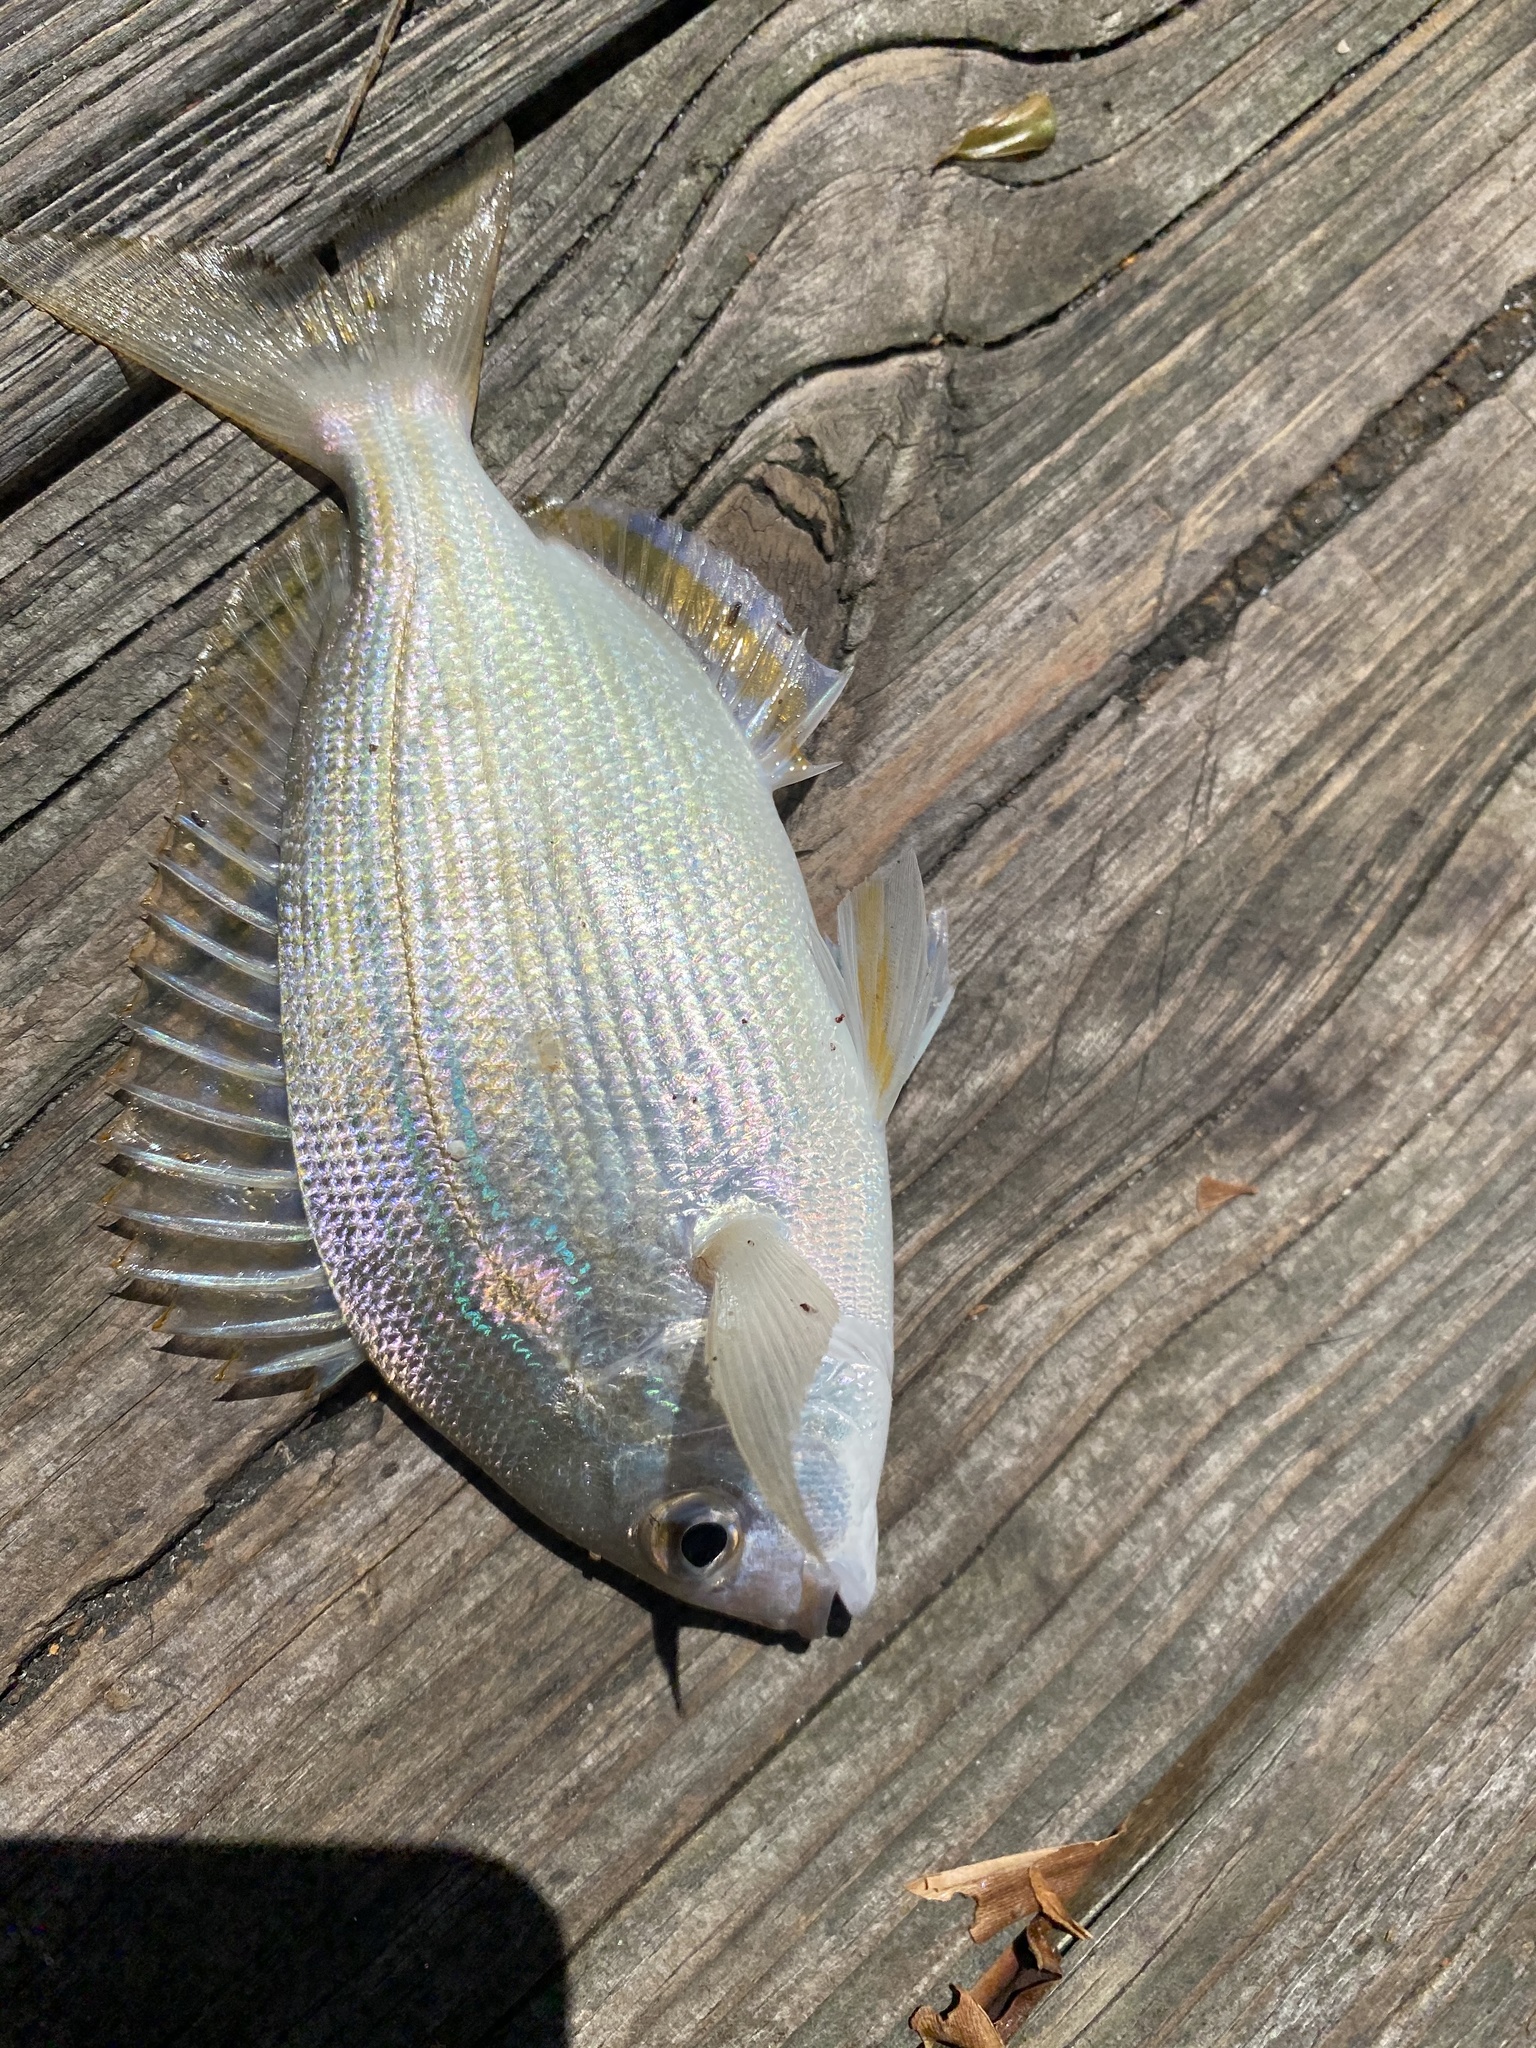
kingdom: Animalia
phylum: Chordata
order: Perciformes
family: Sparidae
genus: Lagodon
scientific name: Lagodon rhomboides
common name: Pinfish
